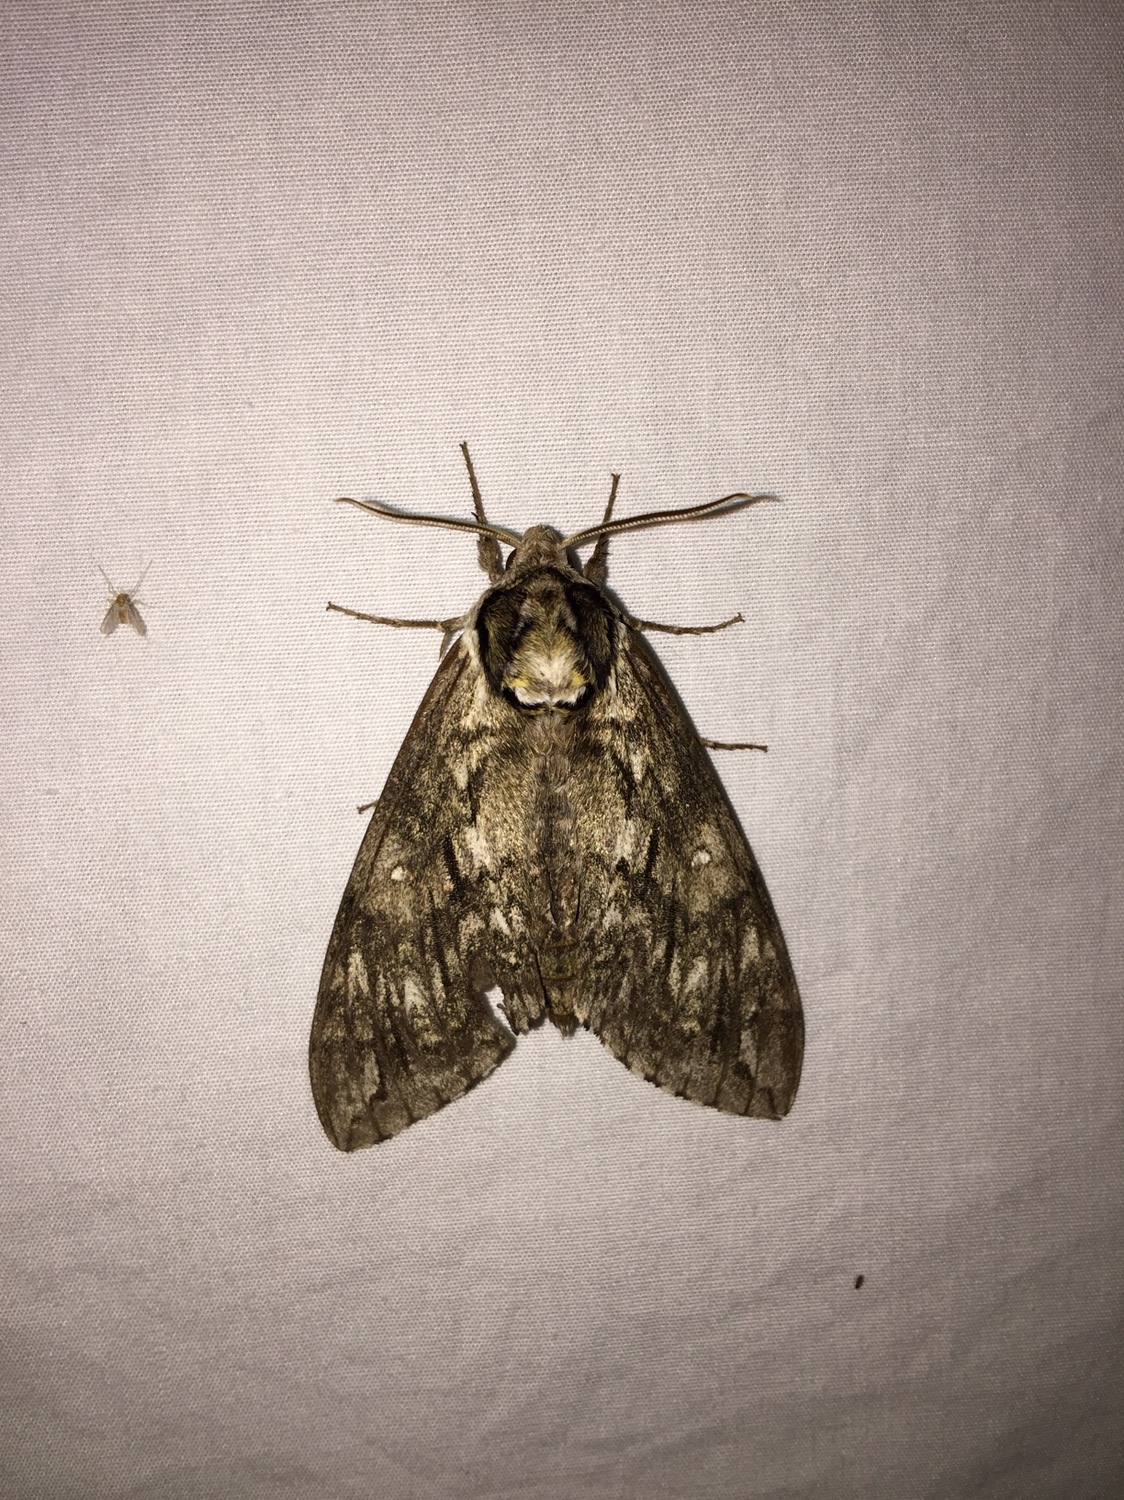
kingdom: Animalia
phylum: Arthropoda
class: Insecta
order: Lepidoptera
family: Sphingidae
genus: Ceratomia
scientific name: Ceratomia undulosa
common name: Waved sphinx
